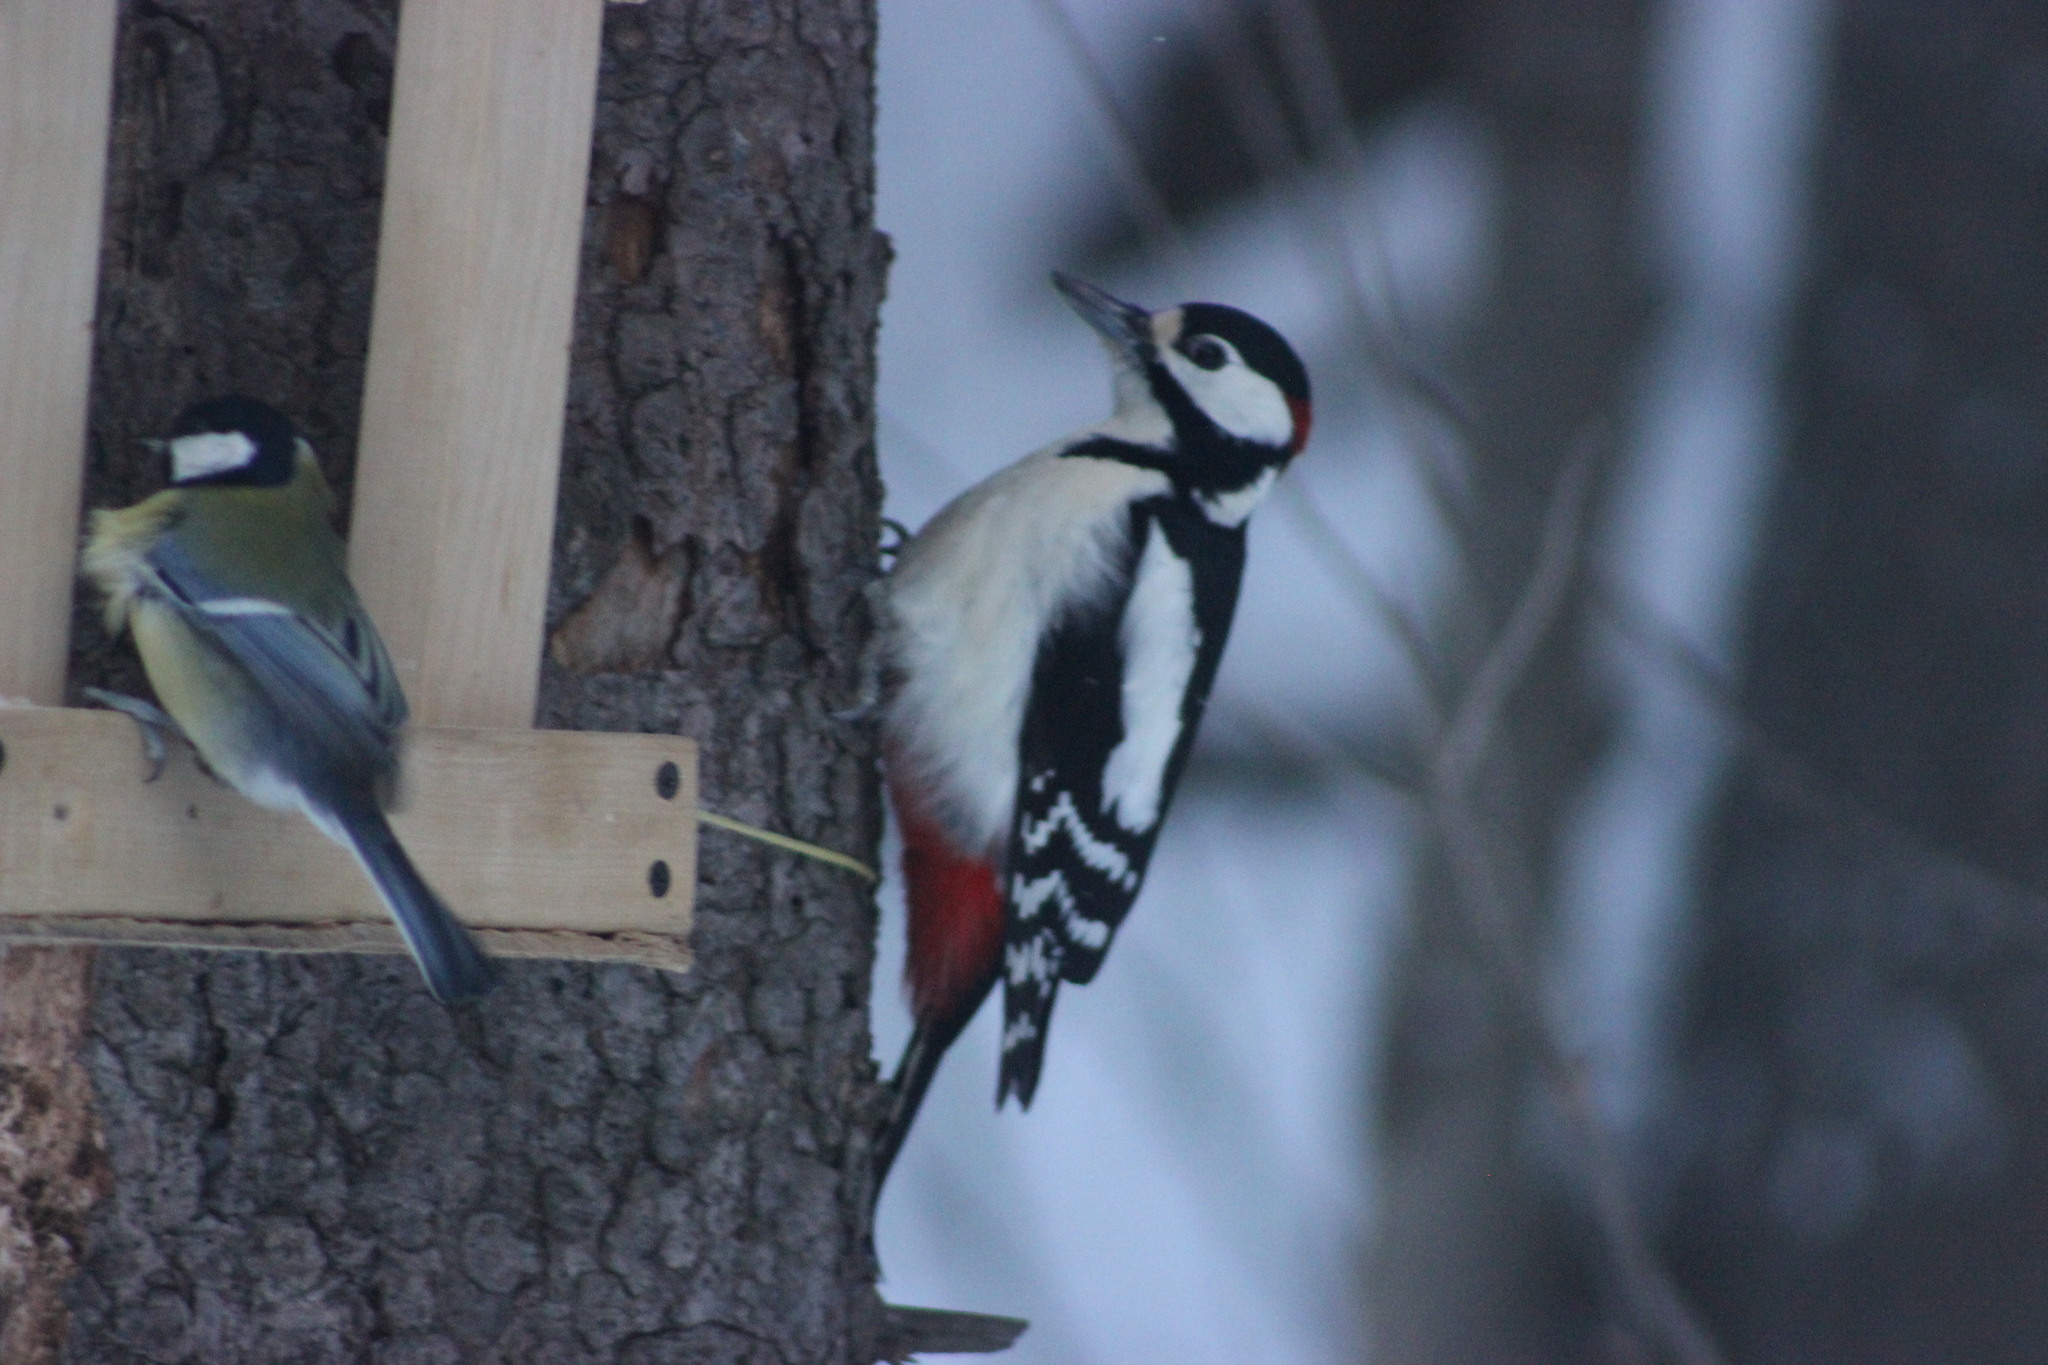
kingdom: Animalia
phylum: Chordata
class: Aves
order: Piciformes
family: Picidae
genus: Dendrocopos
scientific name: Dendrocopos major
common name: Great spotted woodpecker
